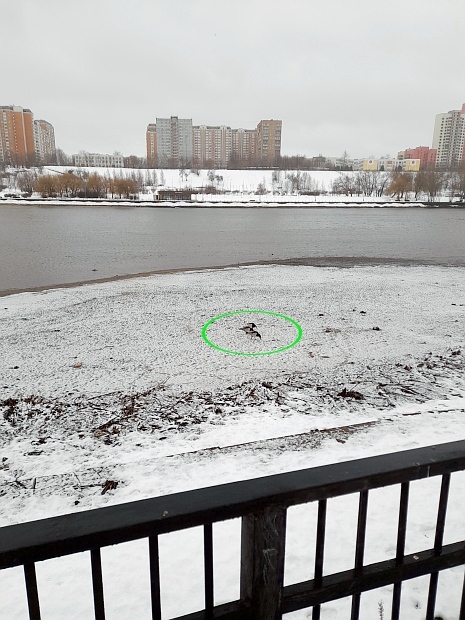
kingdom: Animalia
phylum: Chordata
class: Aves
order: Anseriformes
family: Anatidae
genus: Branta
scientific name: Branta leucopsis
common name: Barnacle goose
